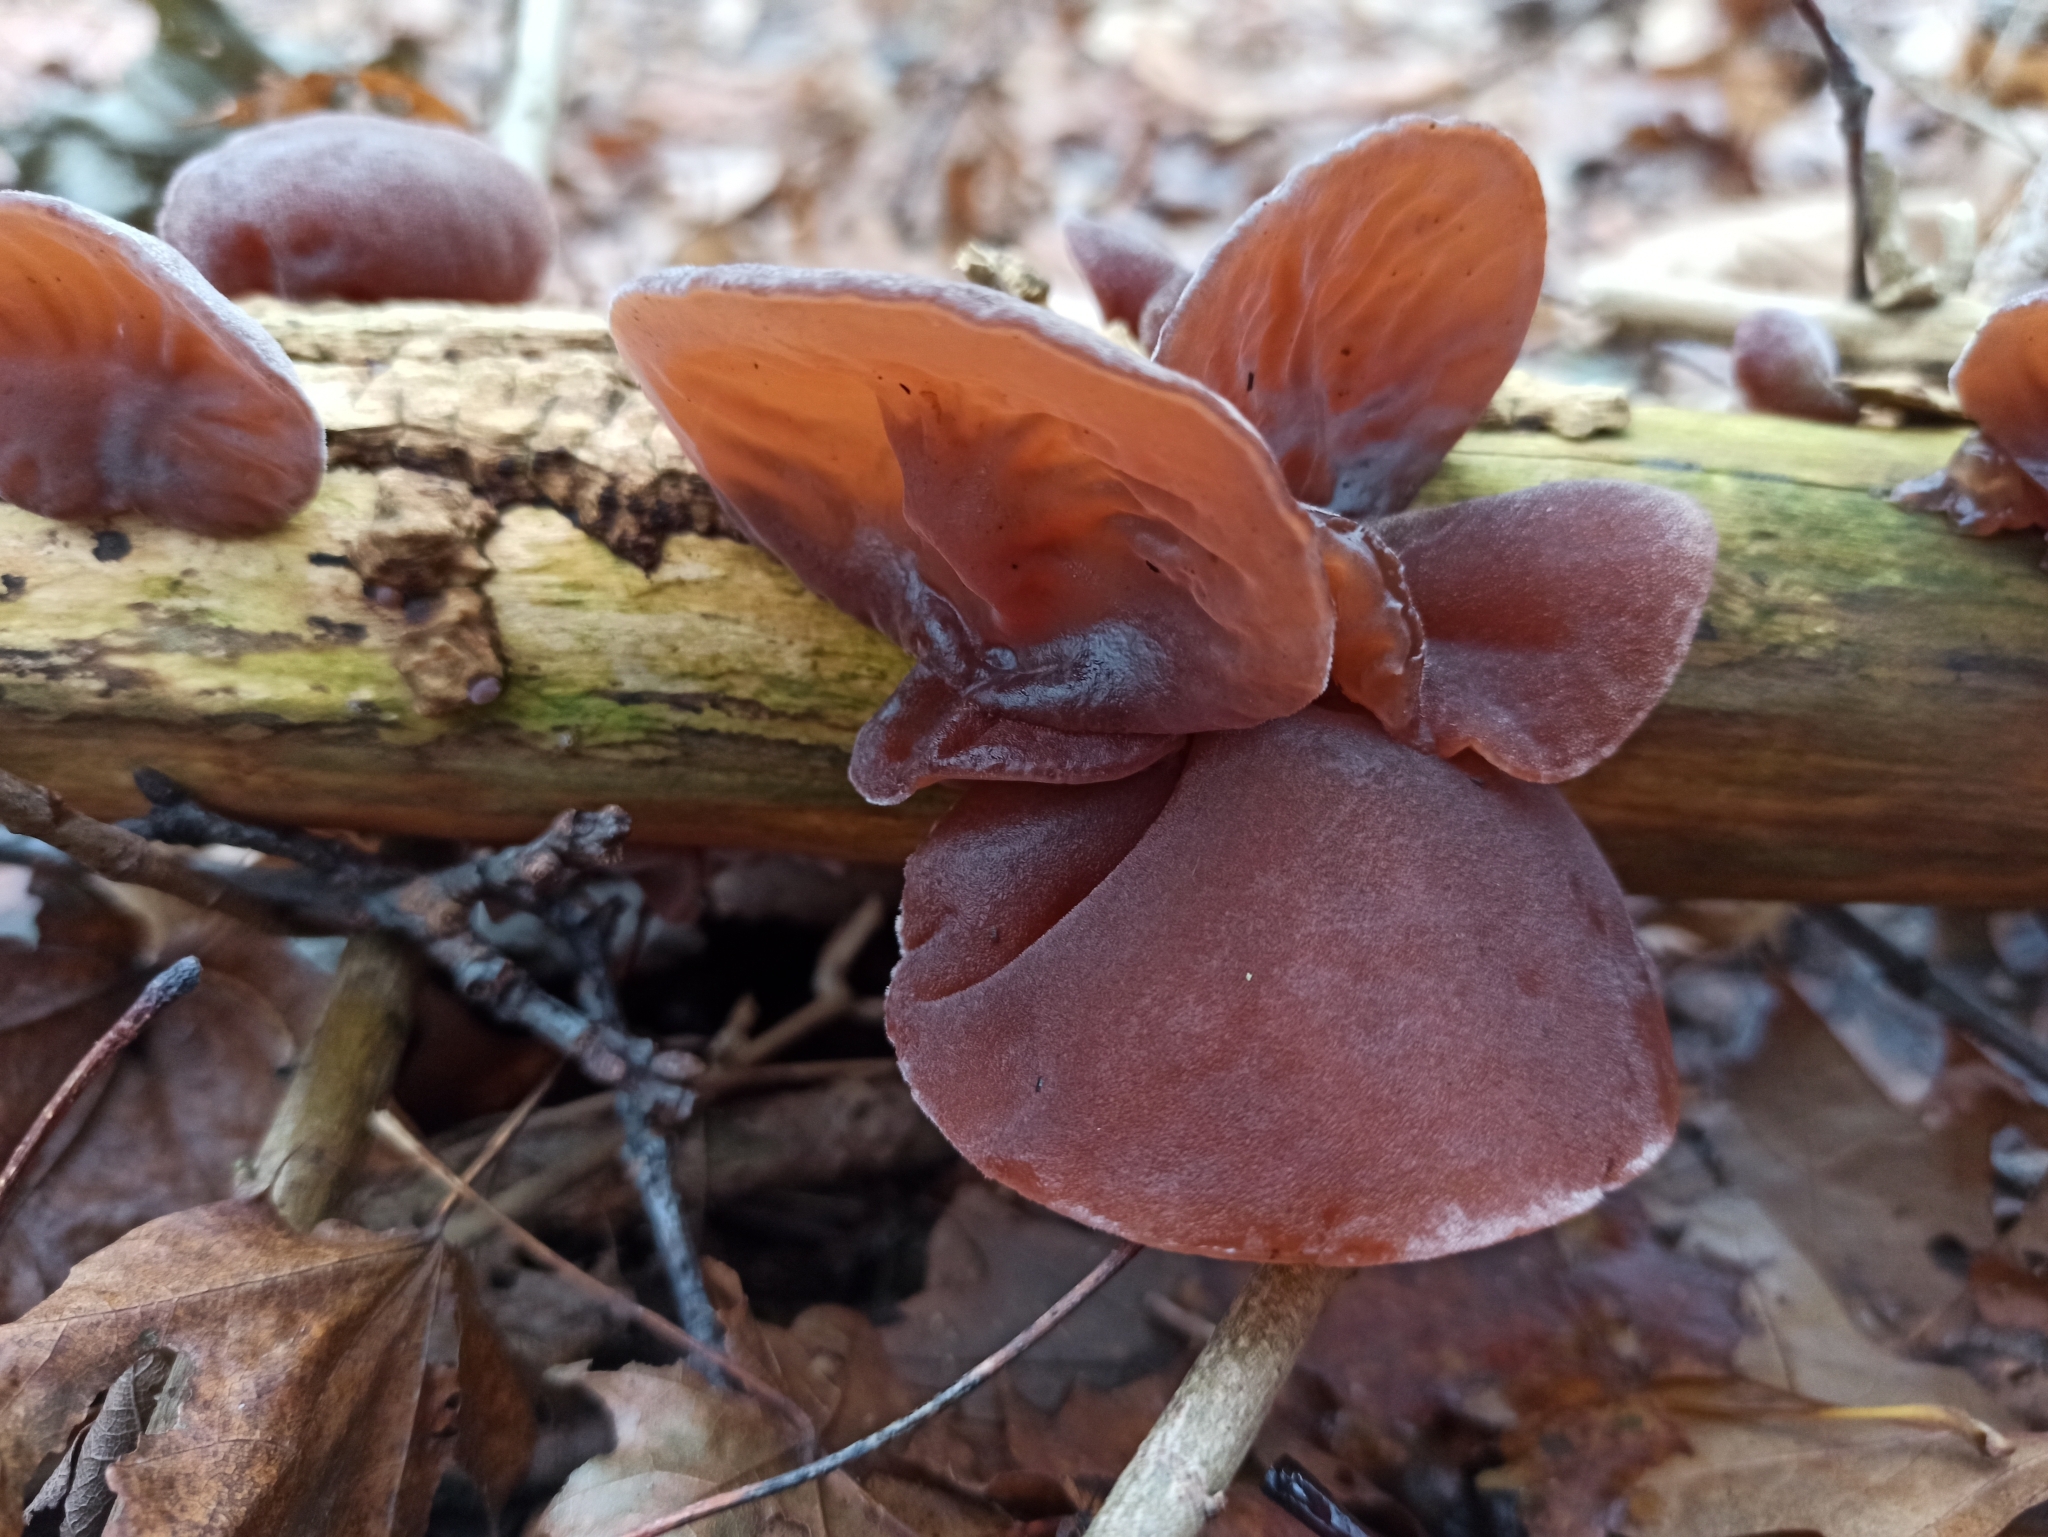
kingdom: Fungi
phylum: Basidiomycota
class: Agaricomycetes
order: Auriculariales
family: Auriculariaceae
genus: Auricularia
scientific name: Auricularia auricula-judae
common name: Jelly ear
